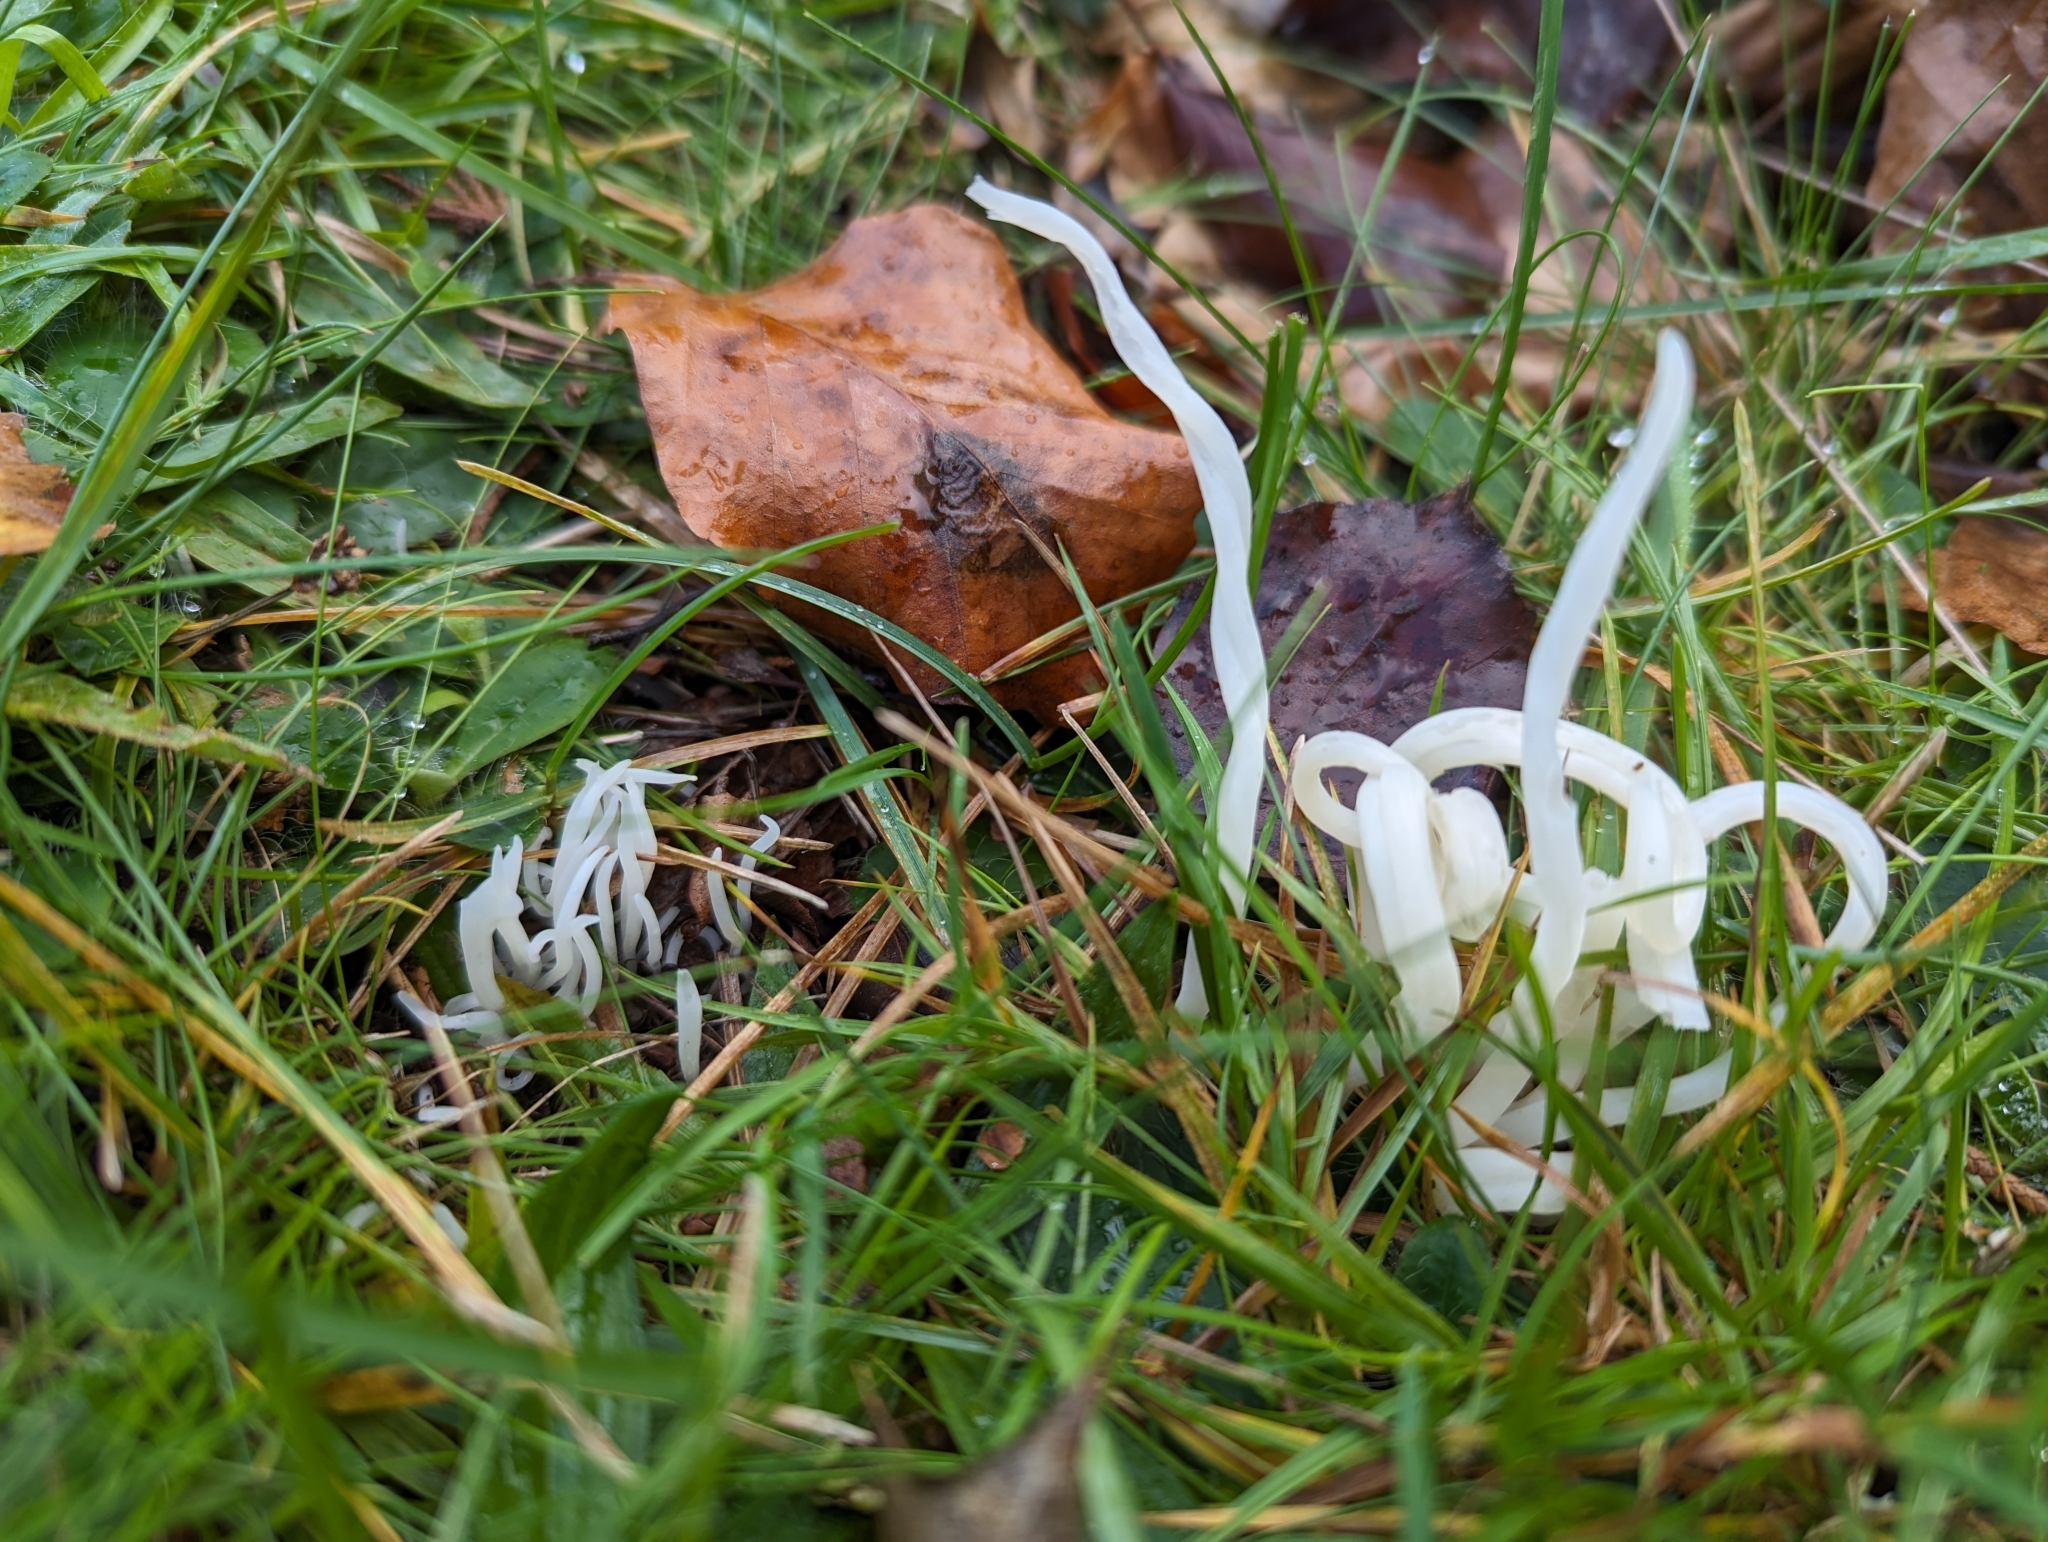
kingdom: Fungi
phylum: Basidiomycota
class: Agaricomycetes
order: Agaricales
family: Clavariaceae
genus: Clavaria
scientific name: Clavaria fragilis
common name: White spindles
